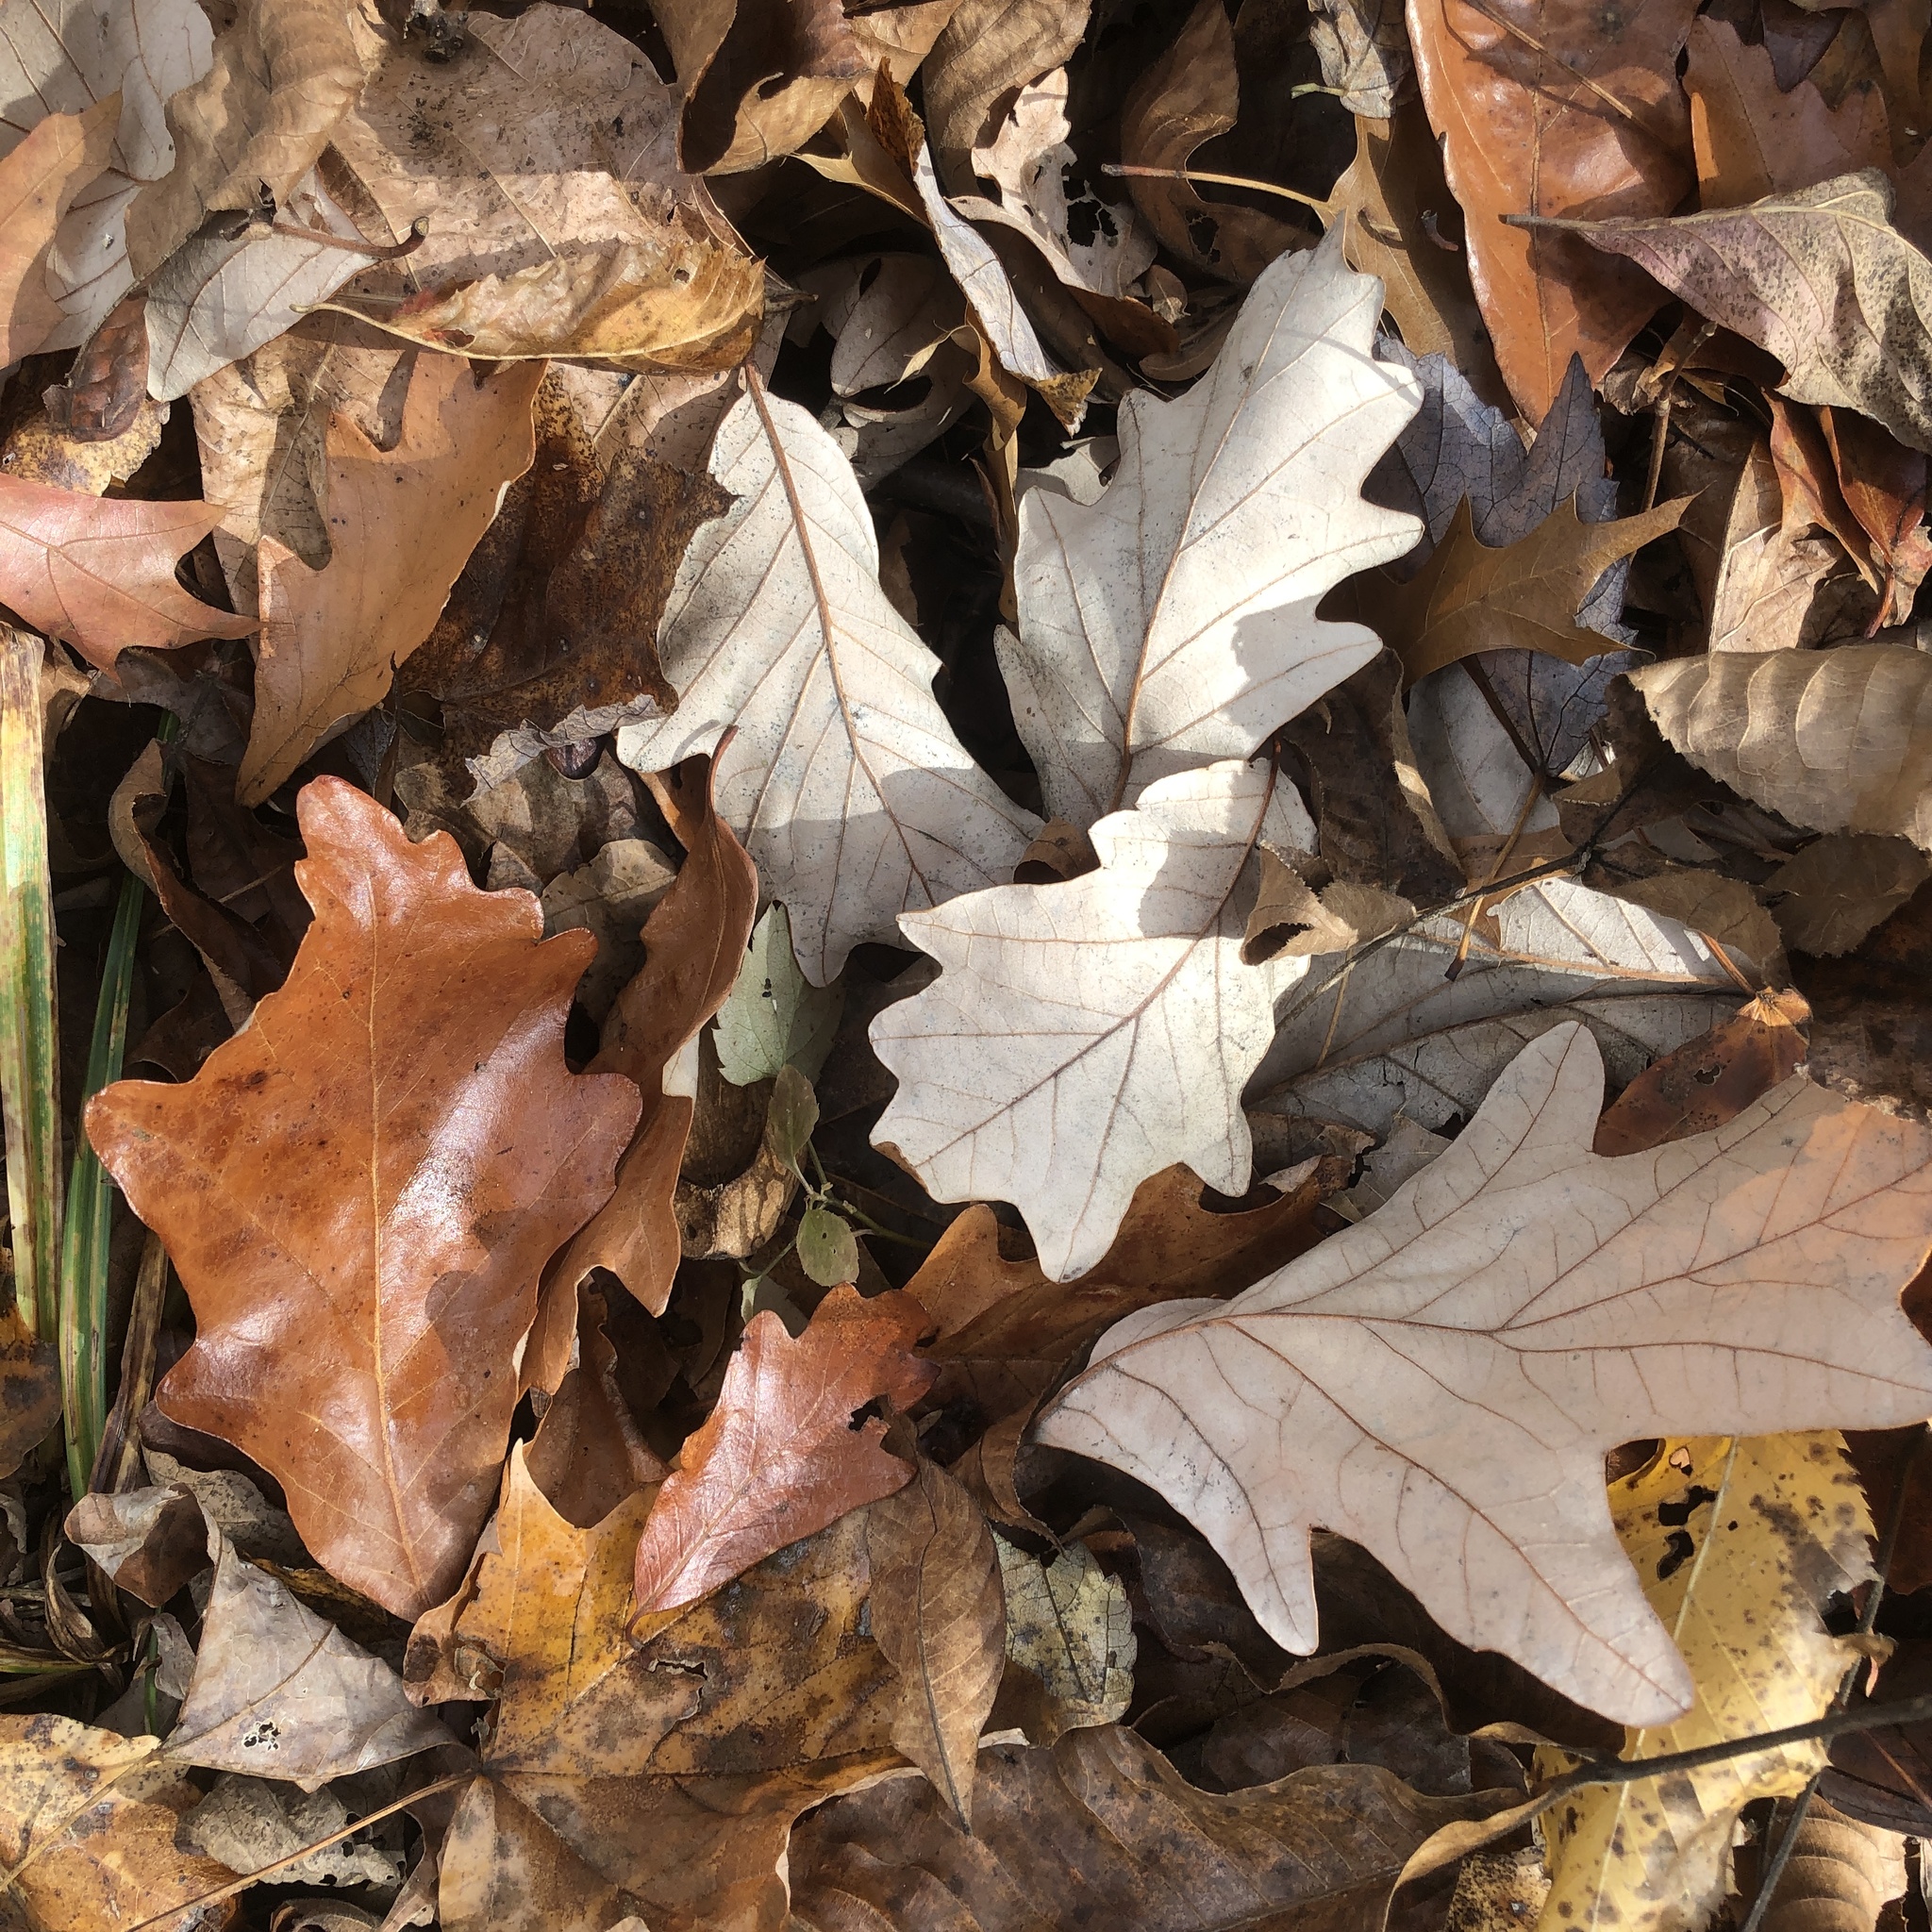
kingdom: Plantae
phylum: Tracheophyta
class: Magnoliopsida
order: Fagales
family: Fagaceae
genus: Quercus
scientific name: Quercus bicolor
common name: Swamp white oak
